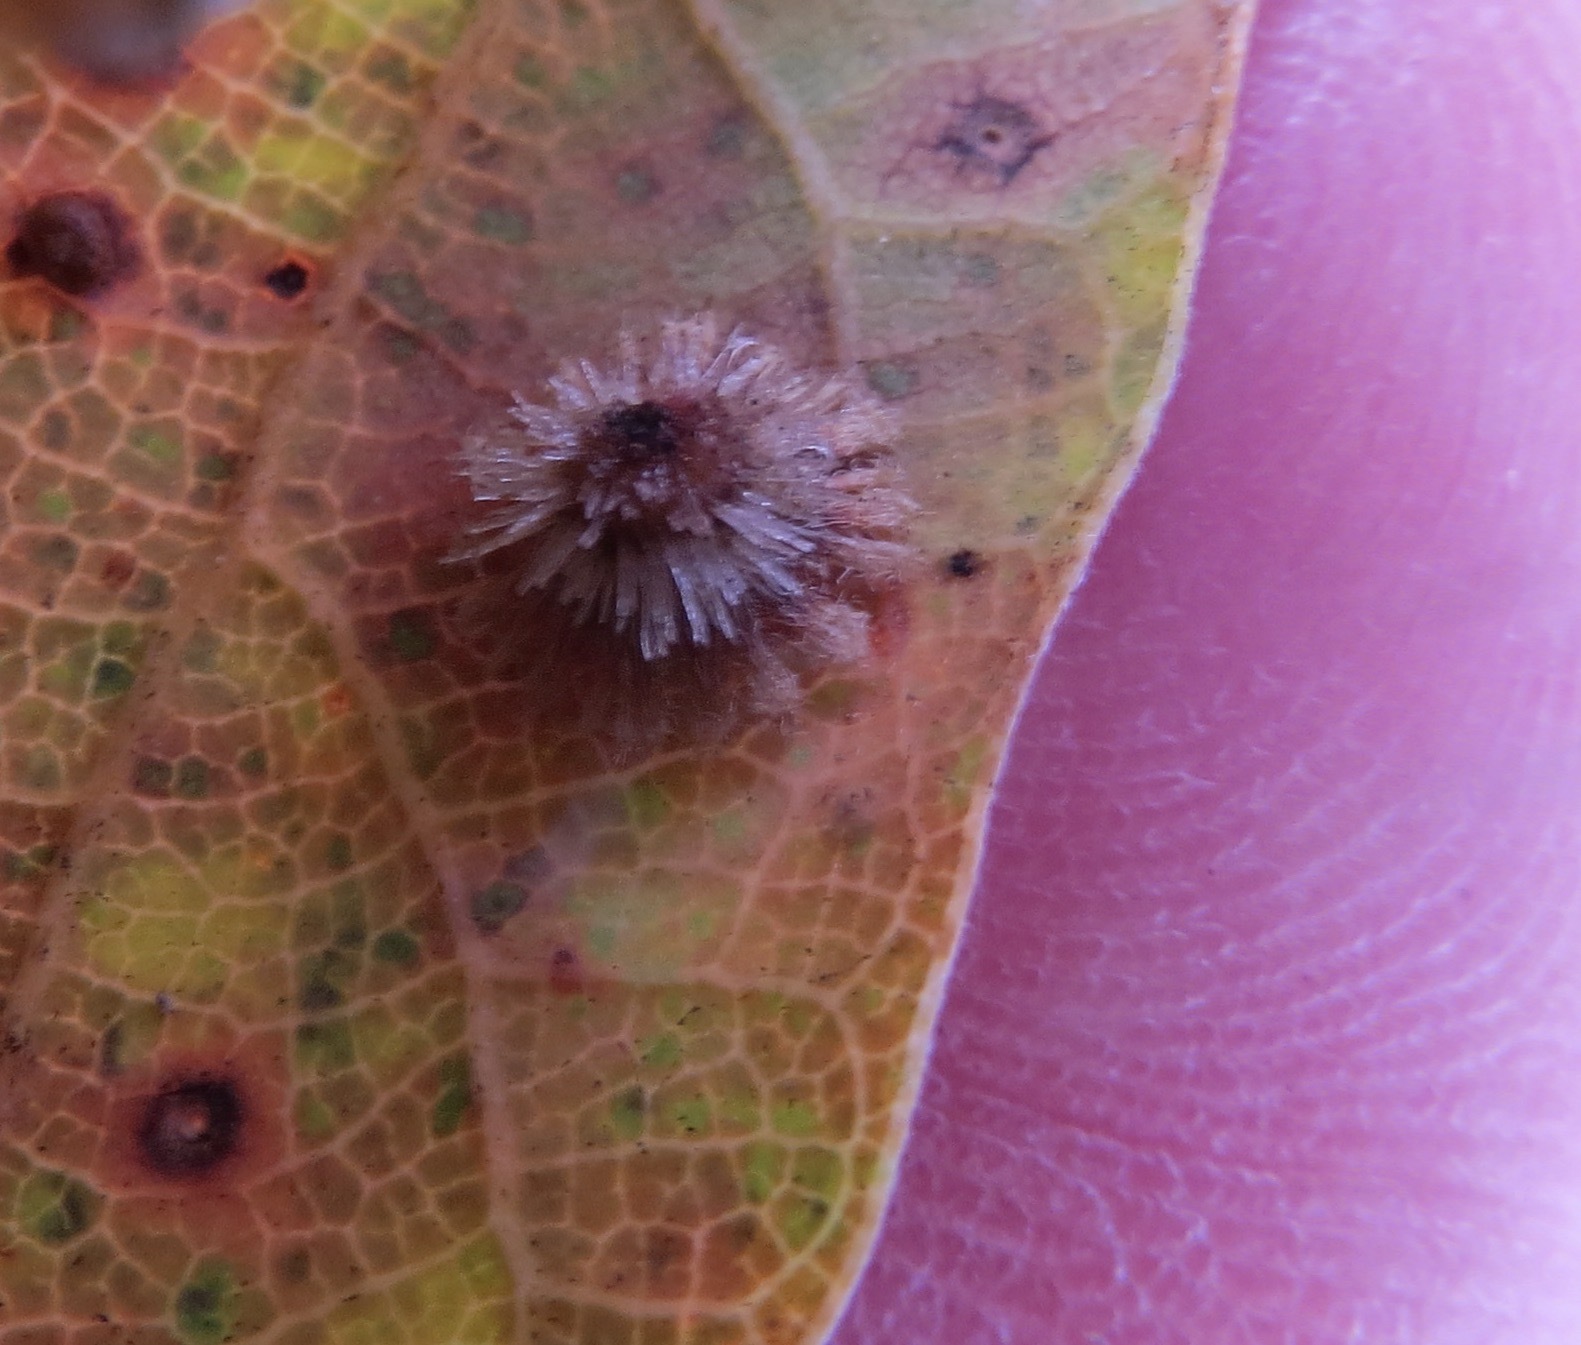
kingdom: Animalia
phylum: Arthropoda
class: Insecta
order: Hymenoptera
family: Cynipidae
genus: Andricus
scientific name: Andricus
